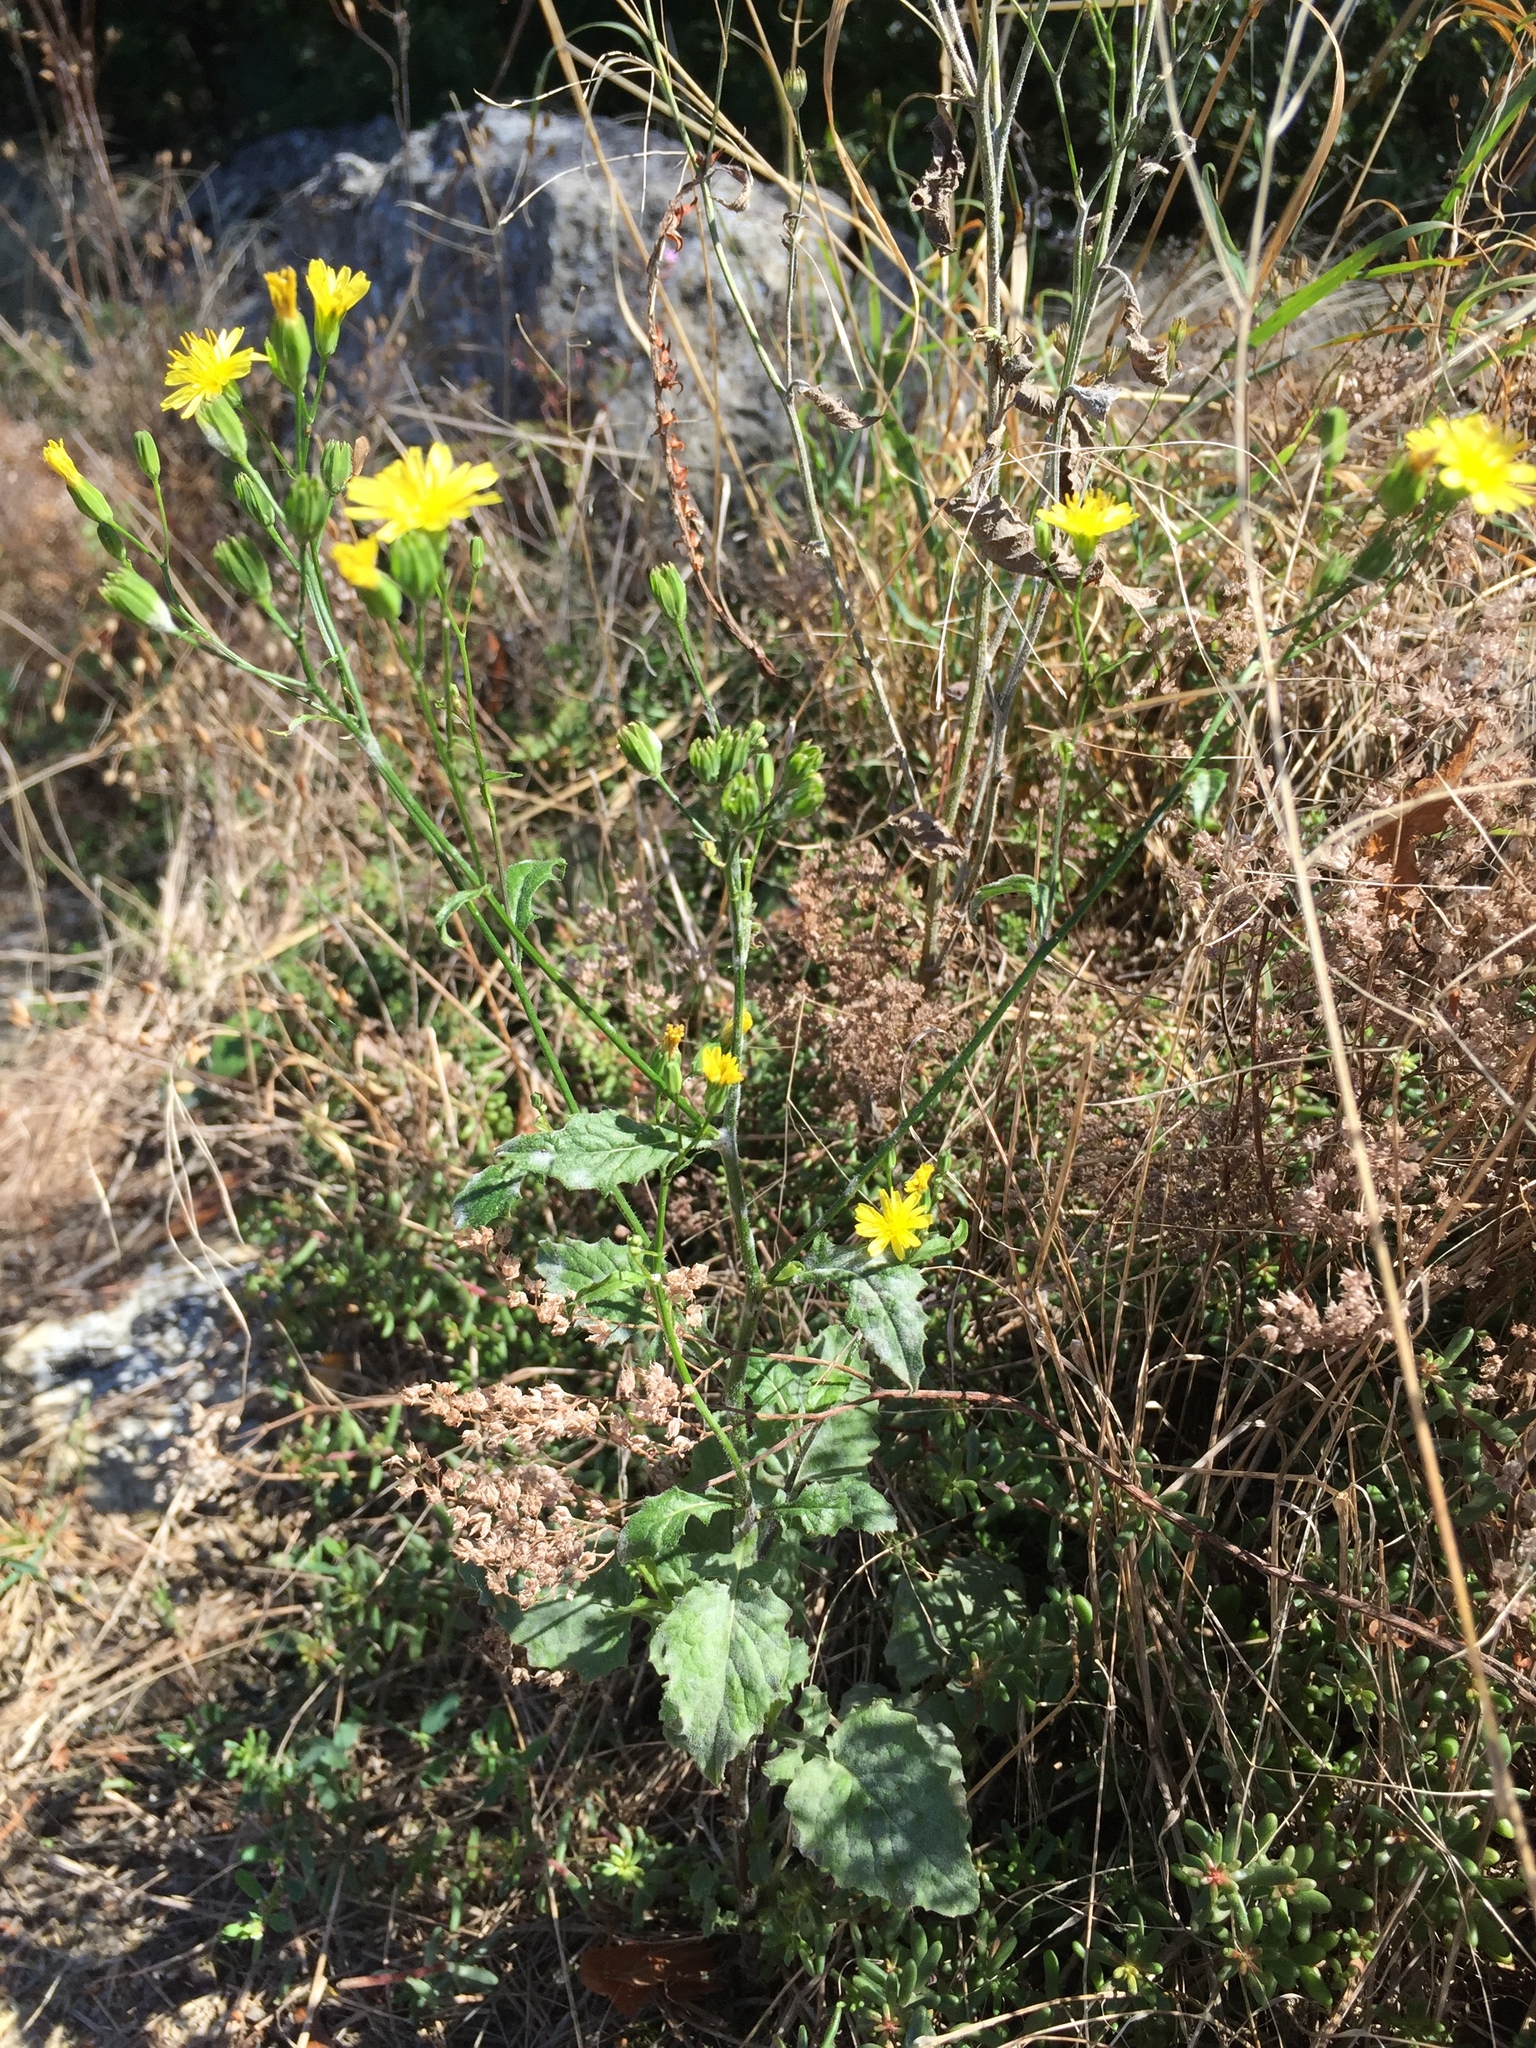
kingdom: Plantae
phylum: Tracheophyta
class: Magnoliopsida
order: Asterales
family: Asteraceae
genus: Lapsana
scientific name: Lapsana communis
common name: Nipplewort
